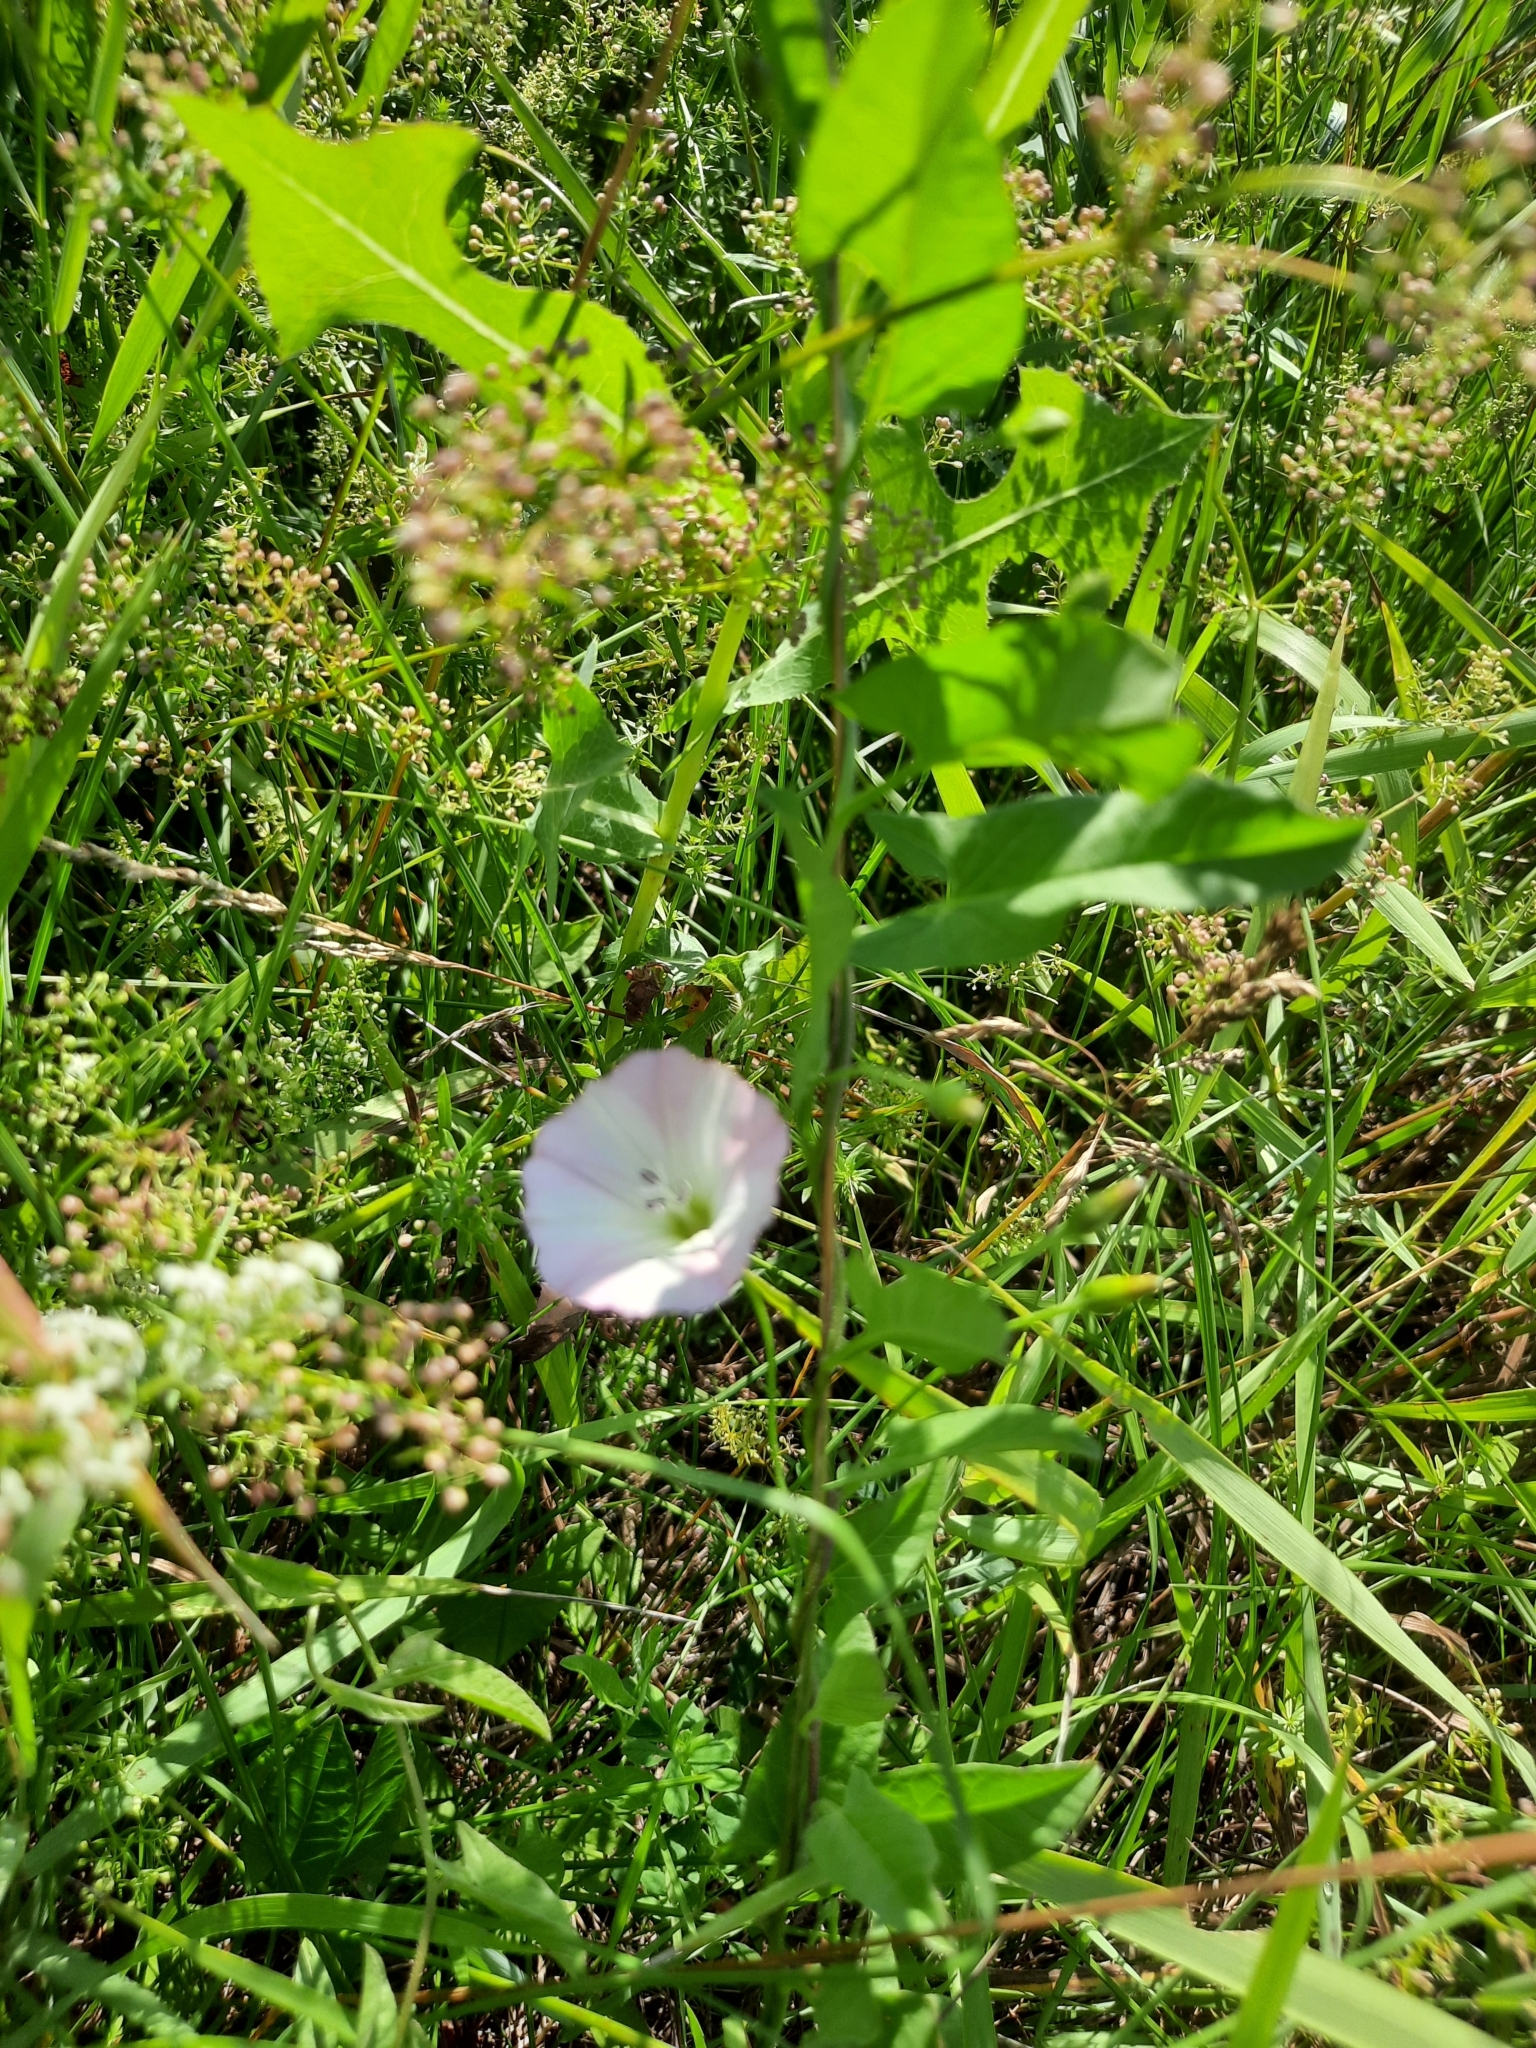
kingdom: Plantae
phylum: Tracheophyta
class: Magnoliopsida
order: Solanales
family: Convolvulaceae
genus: Convolvulus
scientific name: Convolvulus arvensis
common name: Field bindweed
